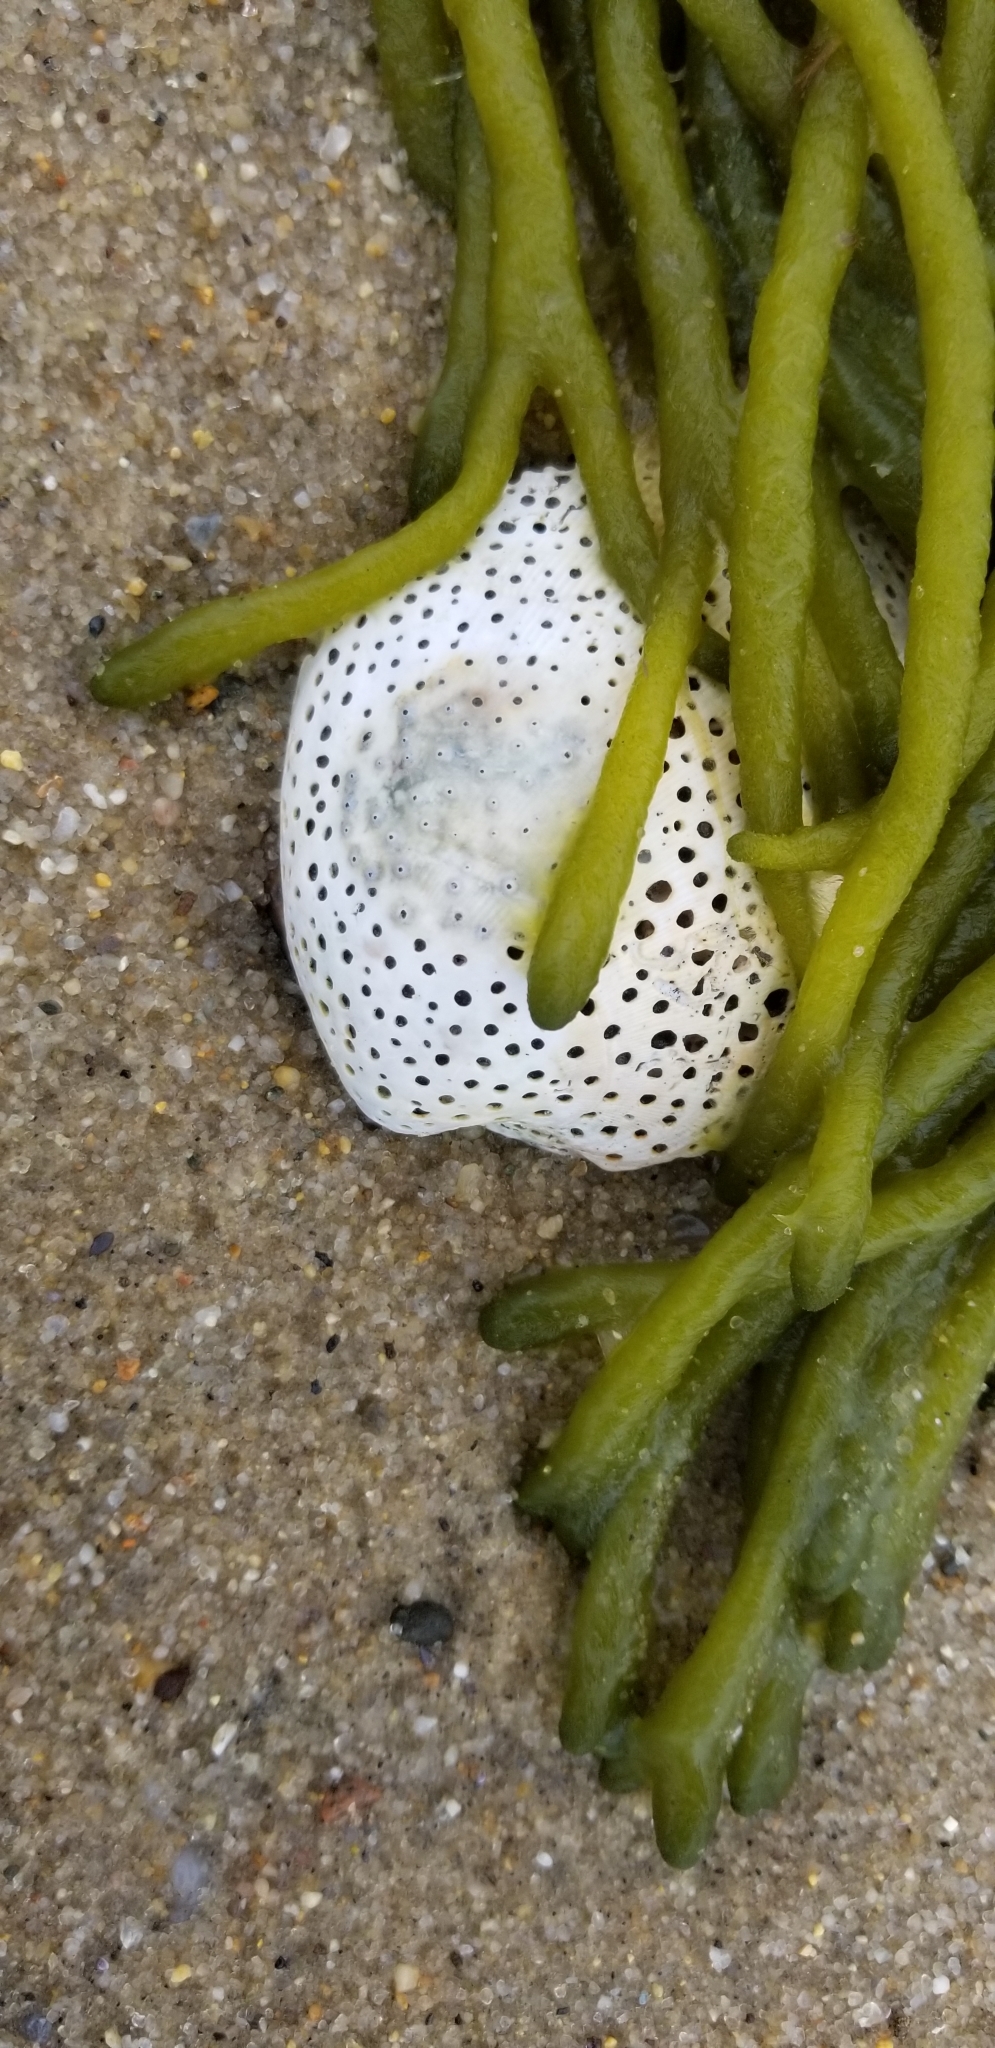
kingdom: Plantae
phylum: Chlorophyta
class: Ulvophyceae
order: Bryopsidales
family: Codiaceae
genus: Codium
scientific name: Codium fragile
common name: Dead man's fingers
